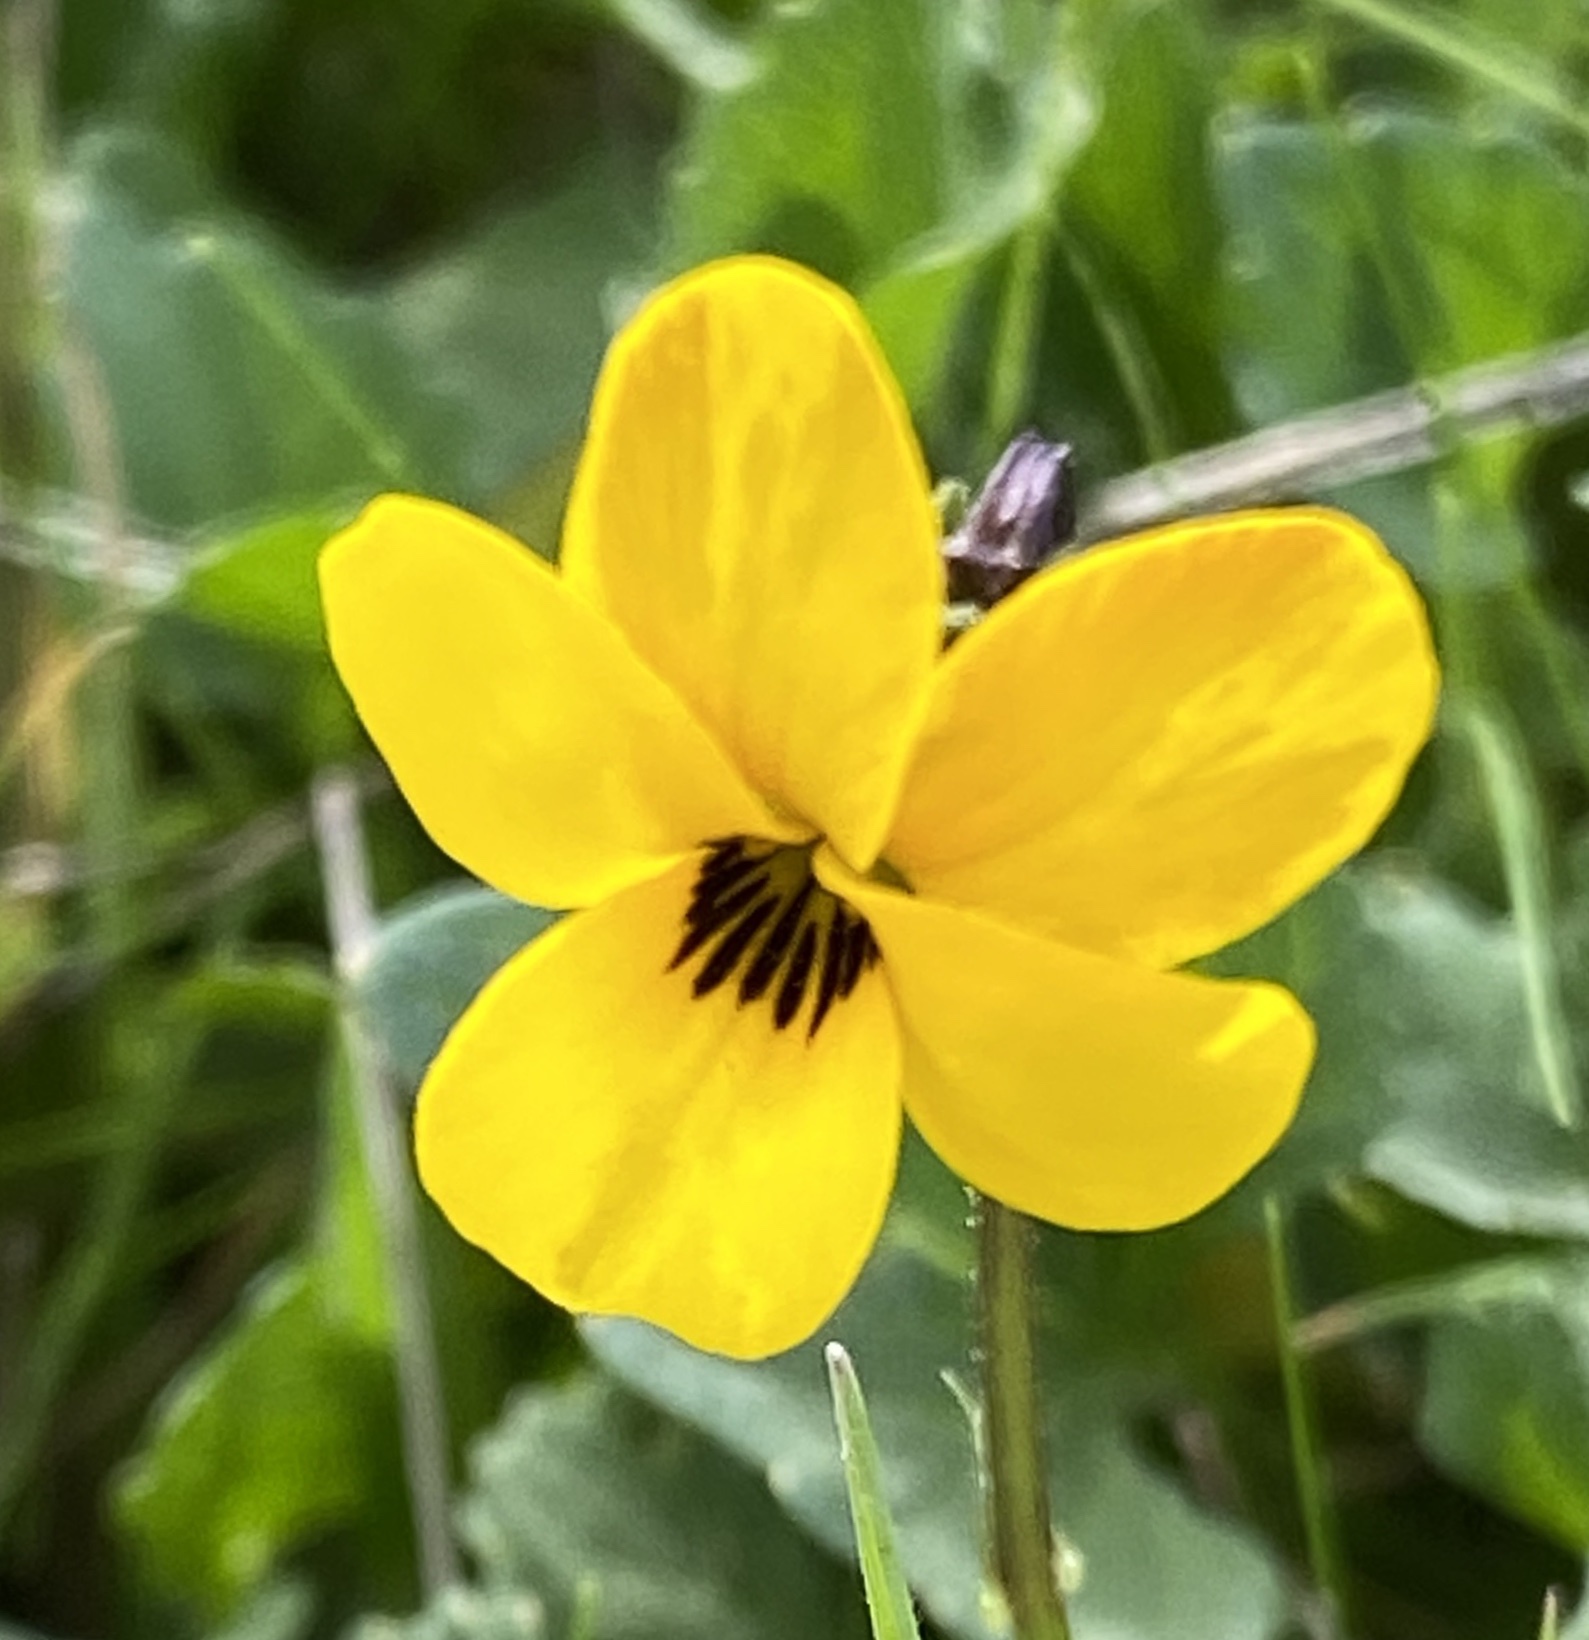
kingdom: Plantae
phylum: Tracheophyta
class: Magnoliopsida
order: Malpighiales
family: Violaceae
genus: Viola
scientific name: Viola pedunculata
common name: California golden violet
